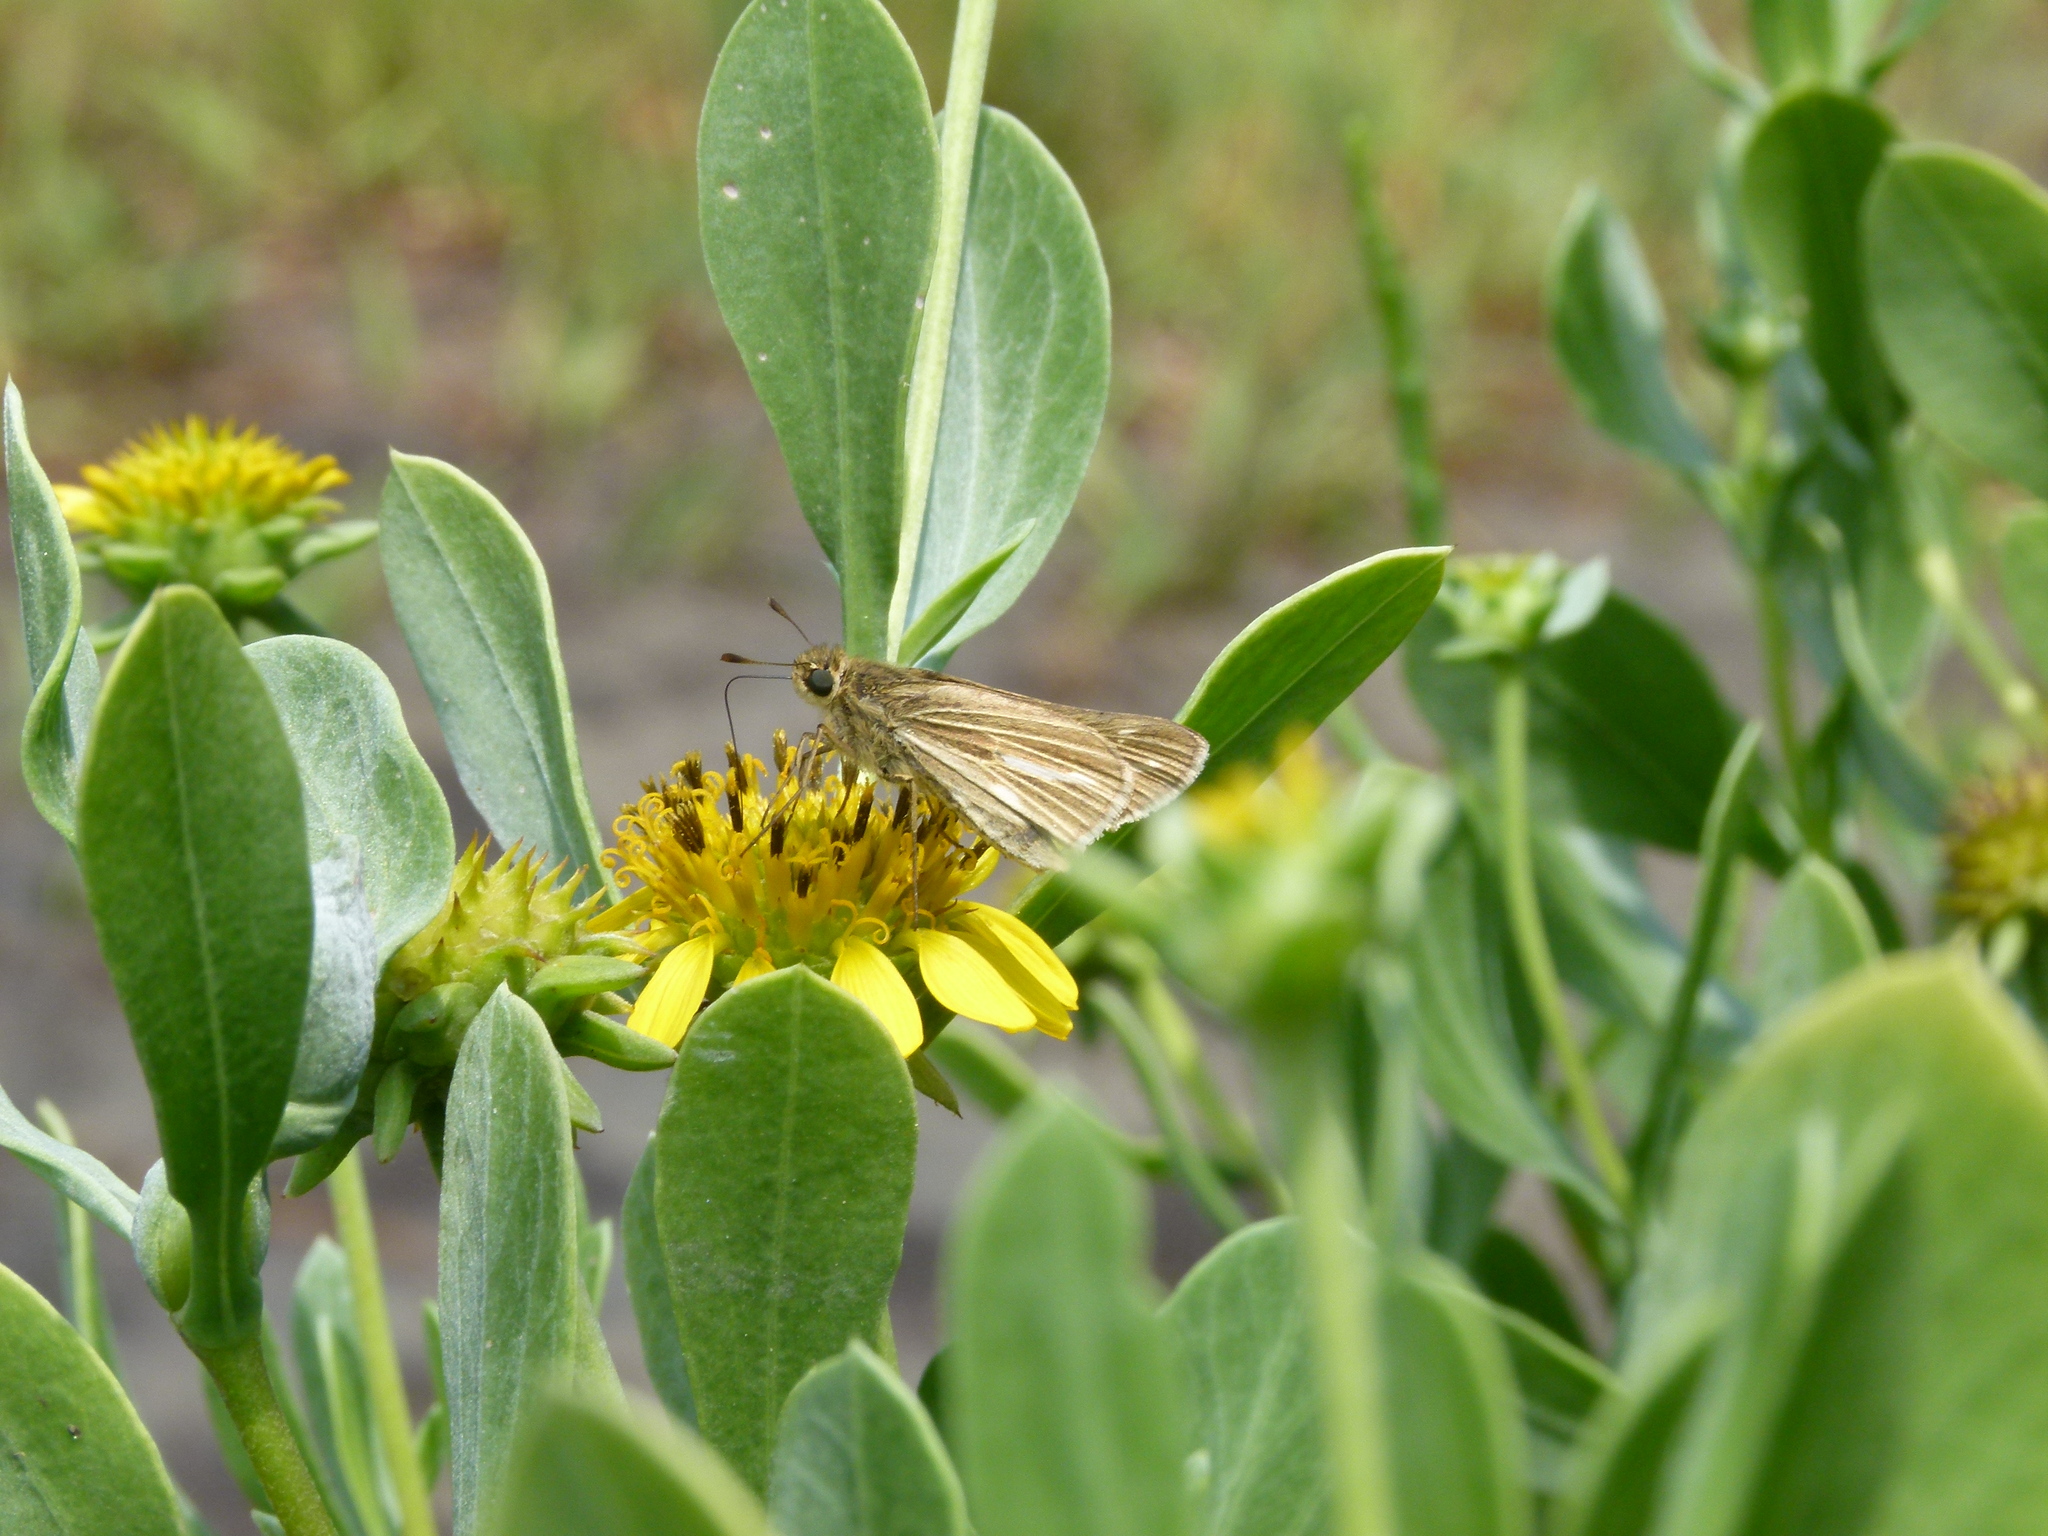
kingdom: Plantae
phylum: Tracheophyta
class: Magnoliopsida
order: Asterales
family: Asteraceae
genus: Borrichia
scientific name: Borrichia frutescens
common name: Sea oxeye
